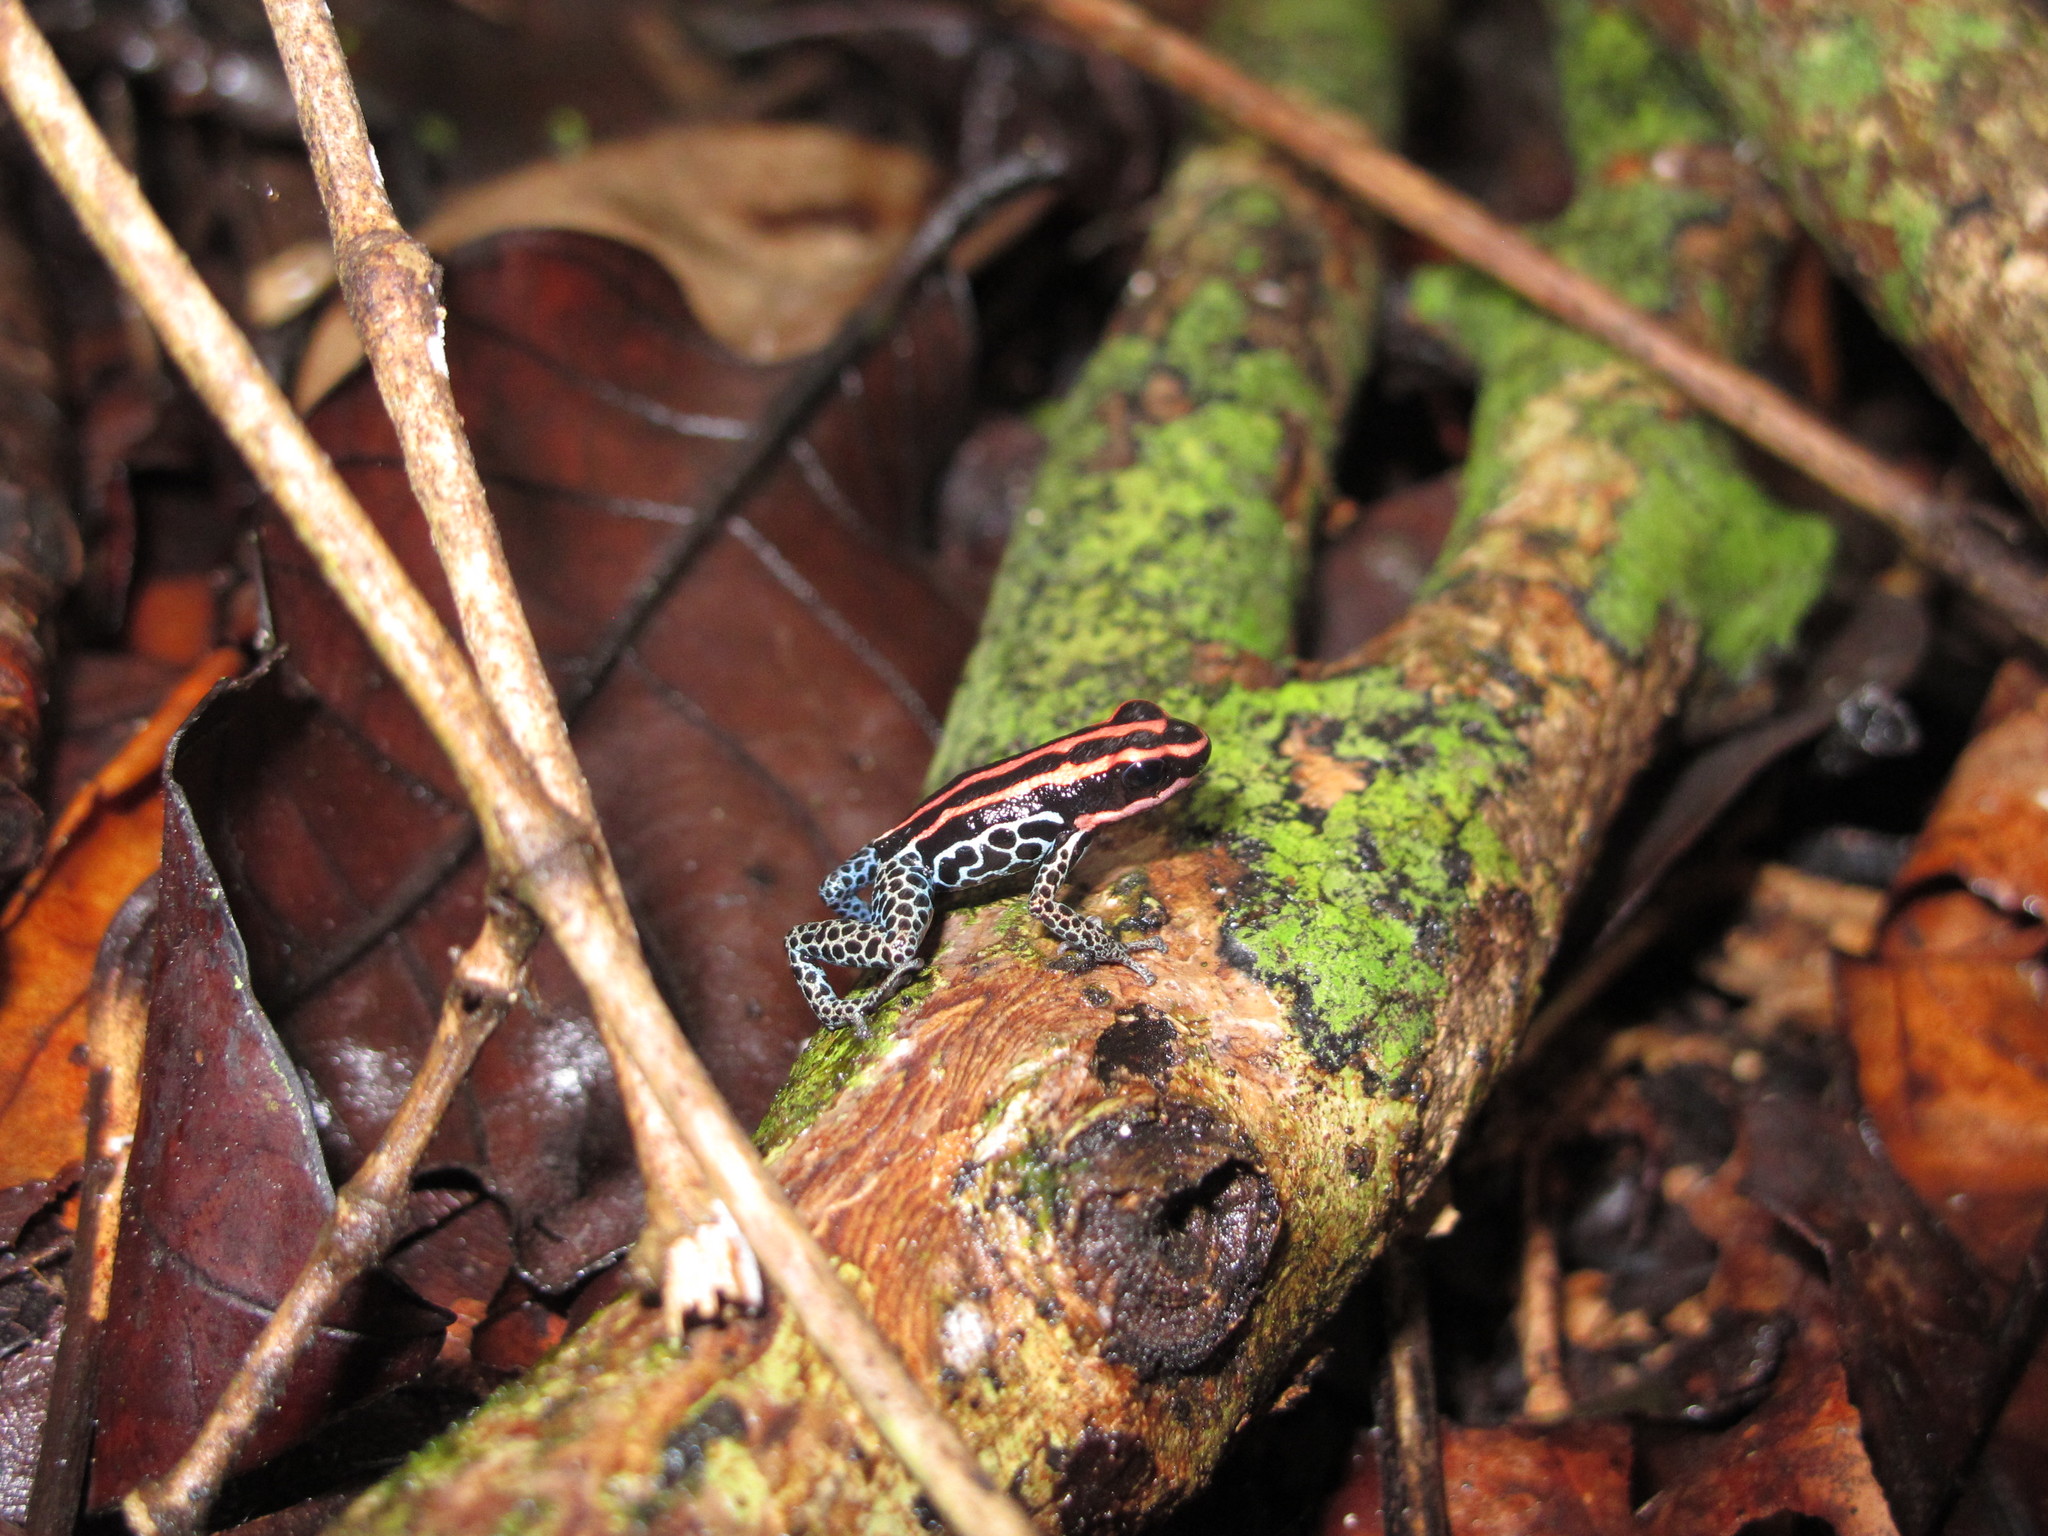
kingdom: Animalia
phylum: Chordata
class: Amphibia
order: Anura
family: Dendrobatidae
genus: Ranitomeya
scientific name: Ranitomeya amazonica
